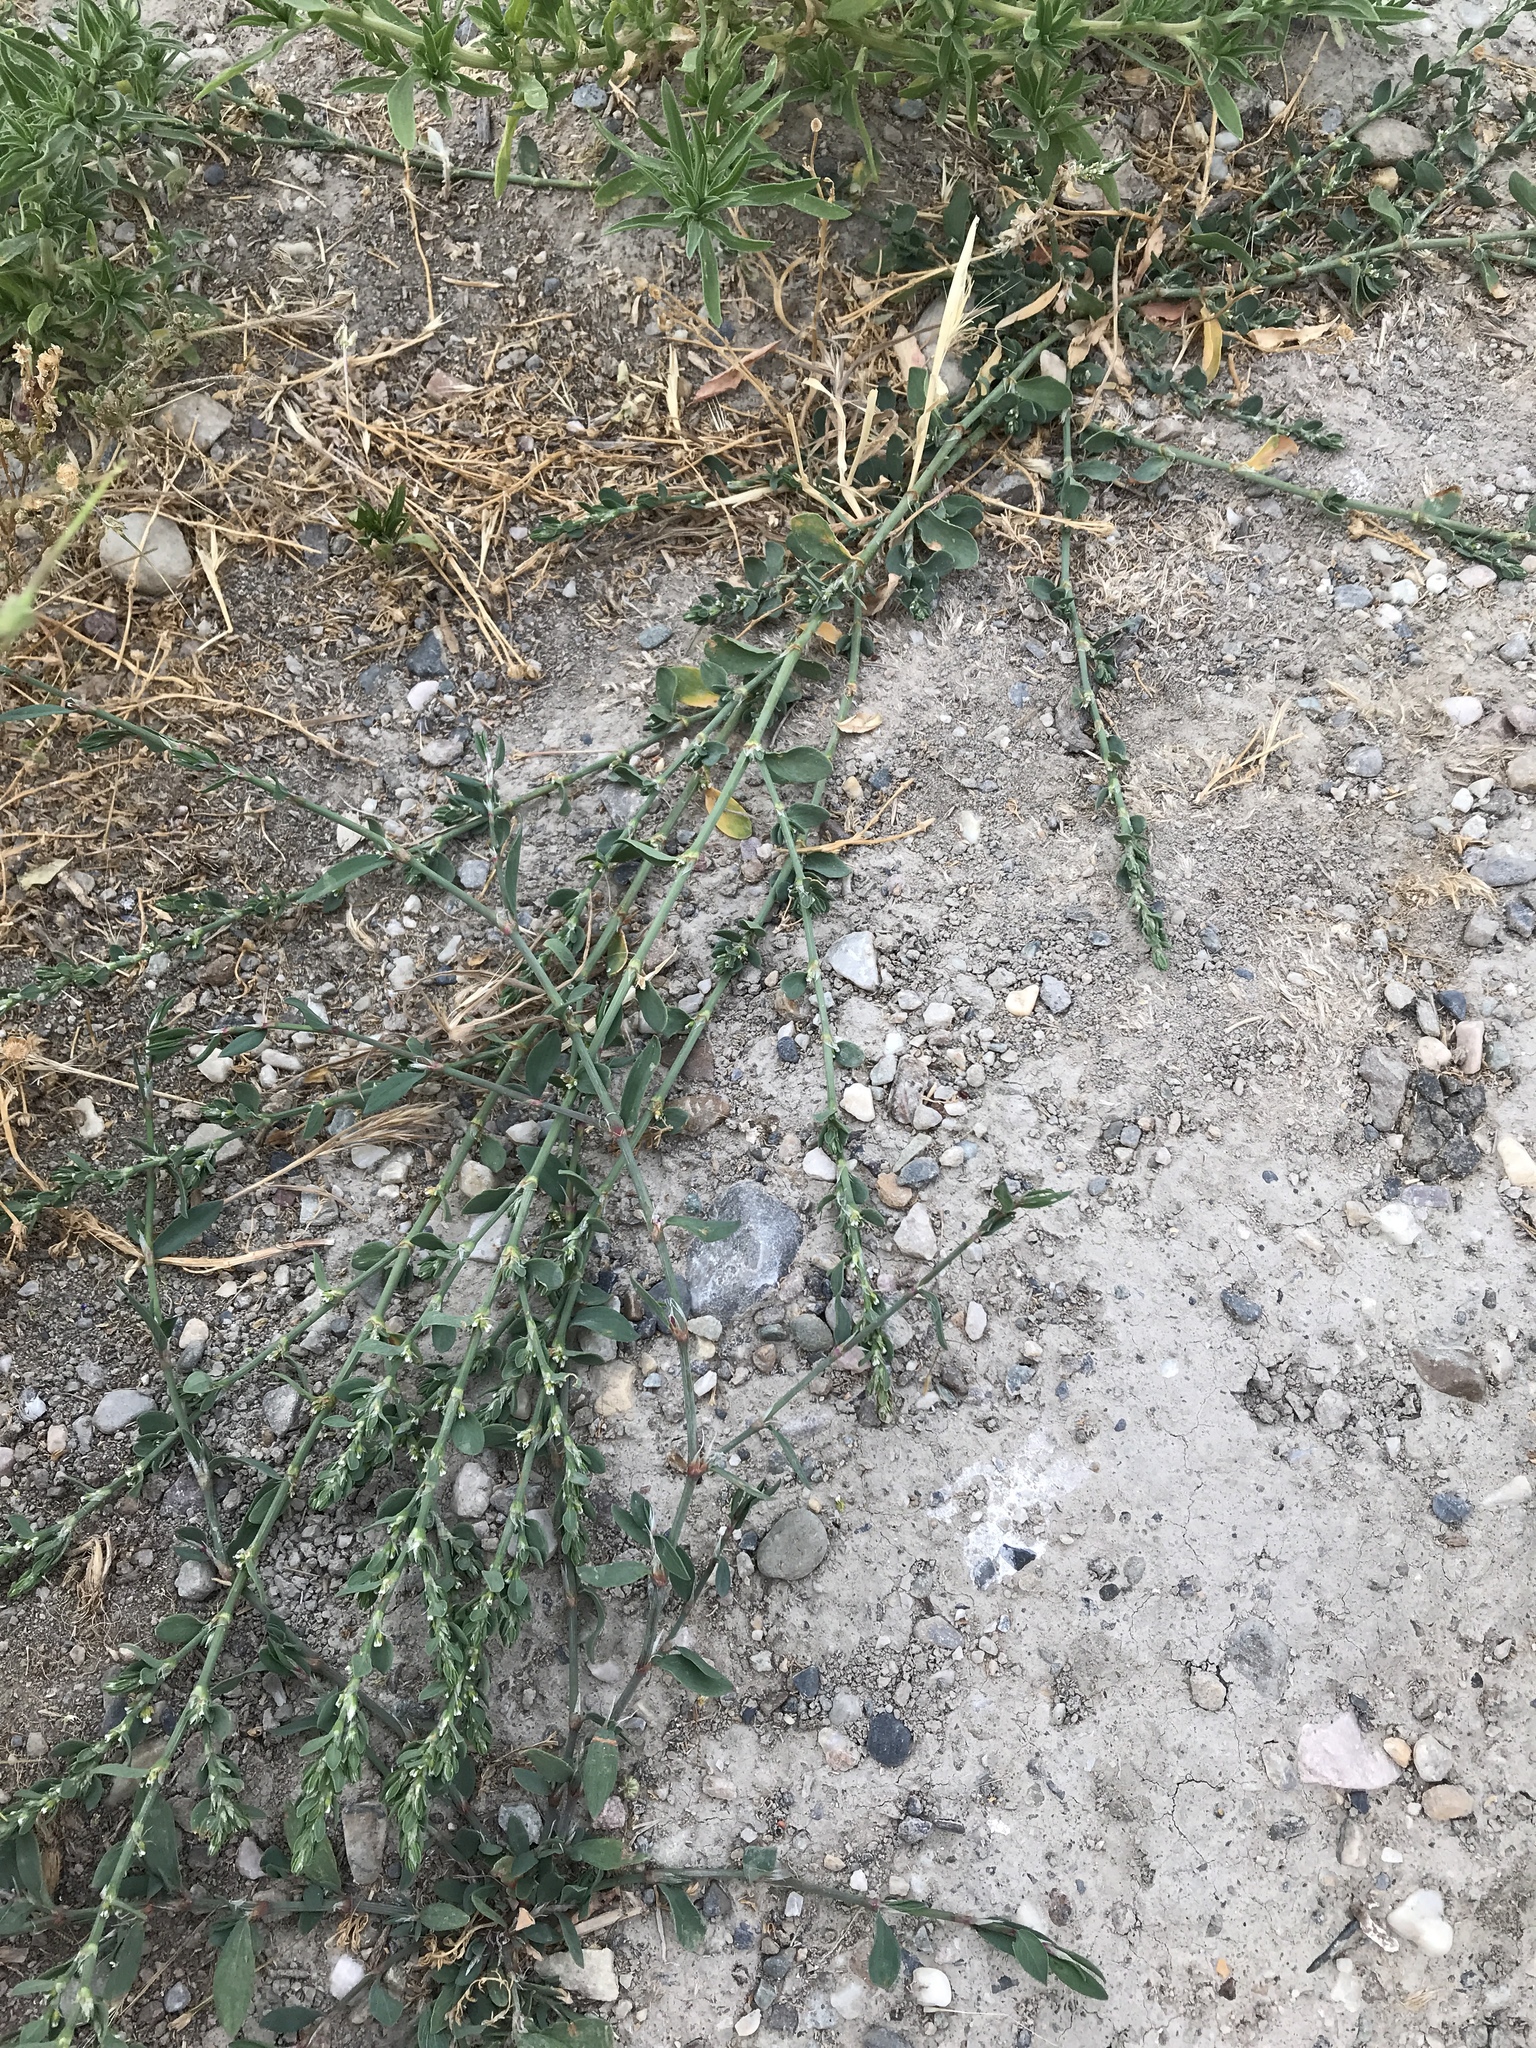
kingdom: Plantae
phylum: Tracheophyta
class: Magnoliopsida
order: Caryophyllales
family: Polygonaceae
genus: Polygonum
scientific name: Polygonum aviculare
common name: Prostrate knotweed
